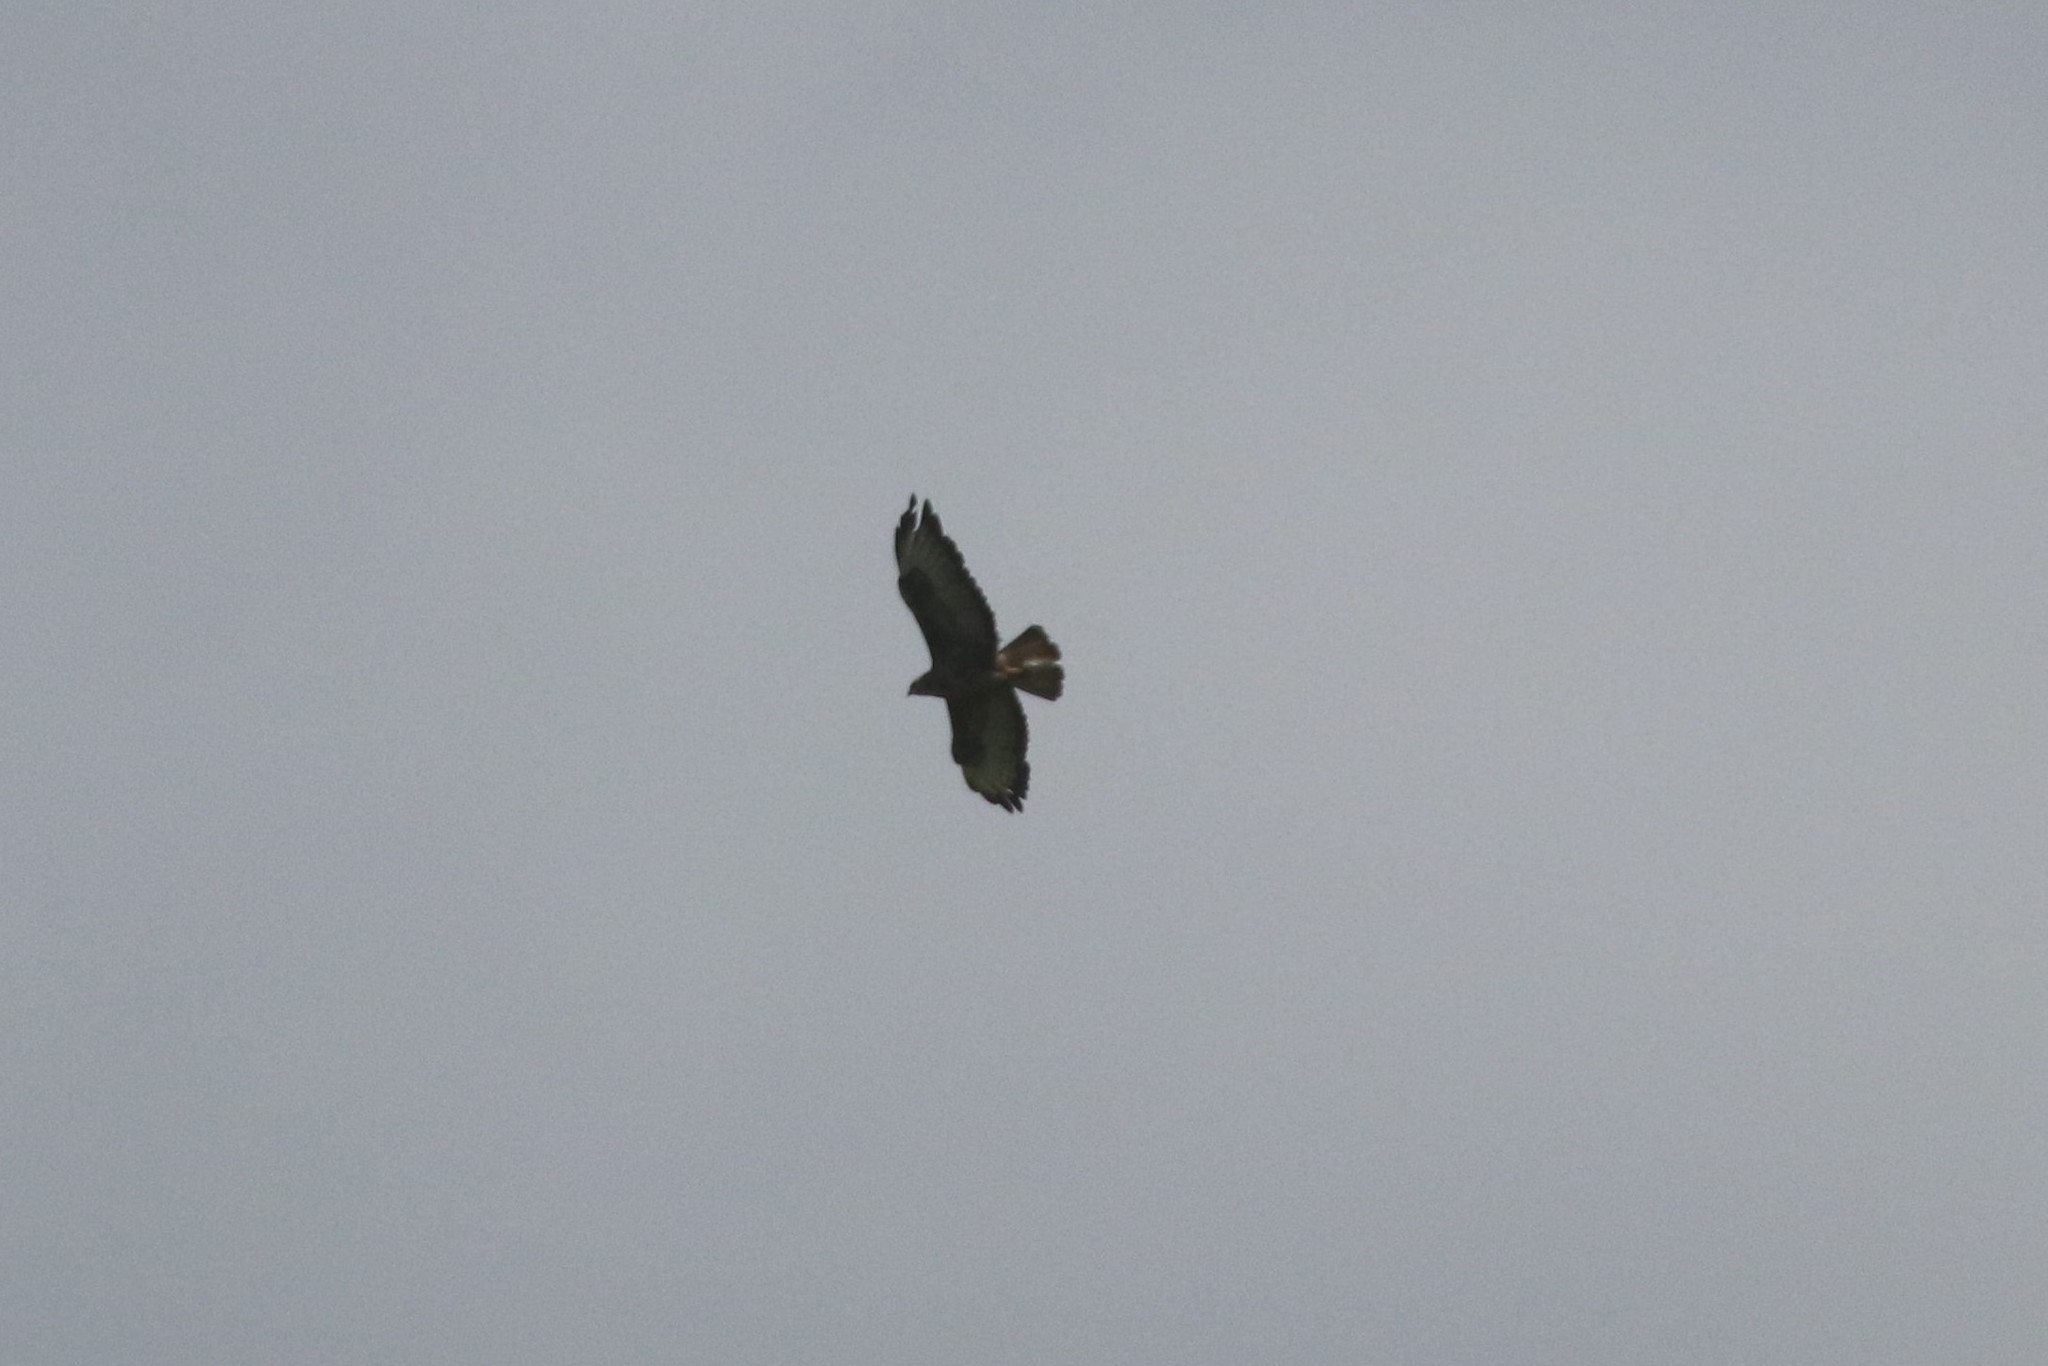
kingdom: Animalia
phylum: Chordata
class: Aves
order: Accipitriformes
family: Accipitridae
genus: Buteo
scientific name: Buteo buteo
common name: Common buzzard
